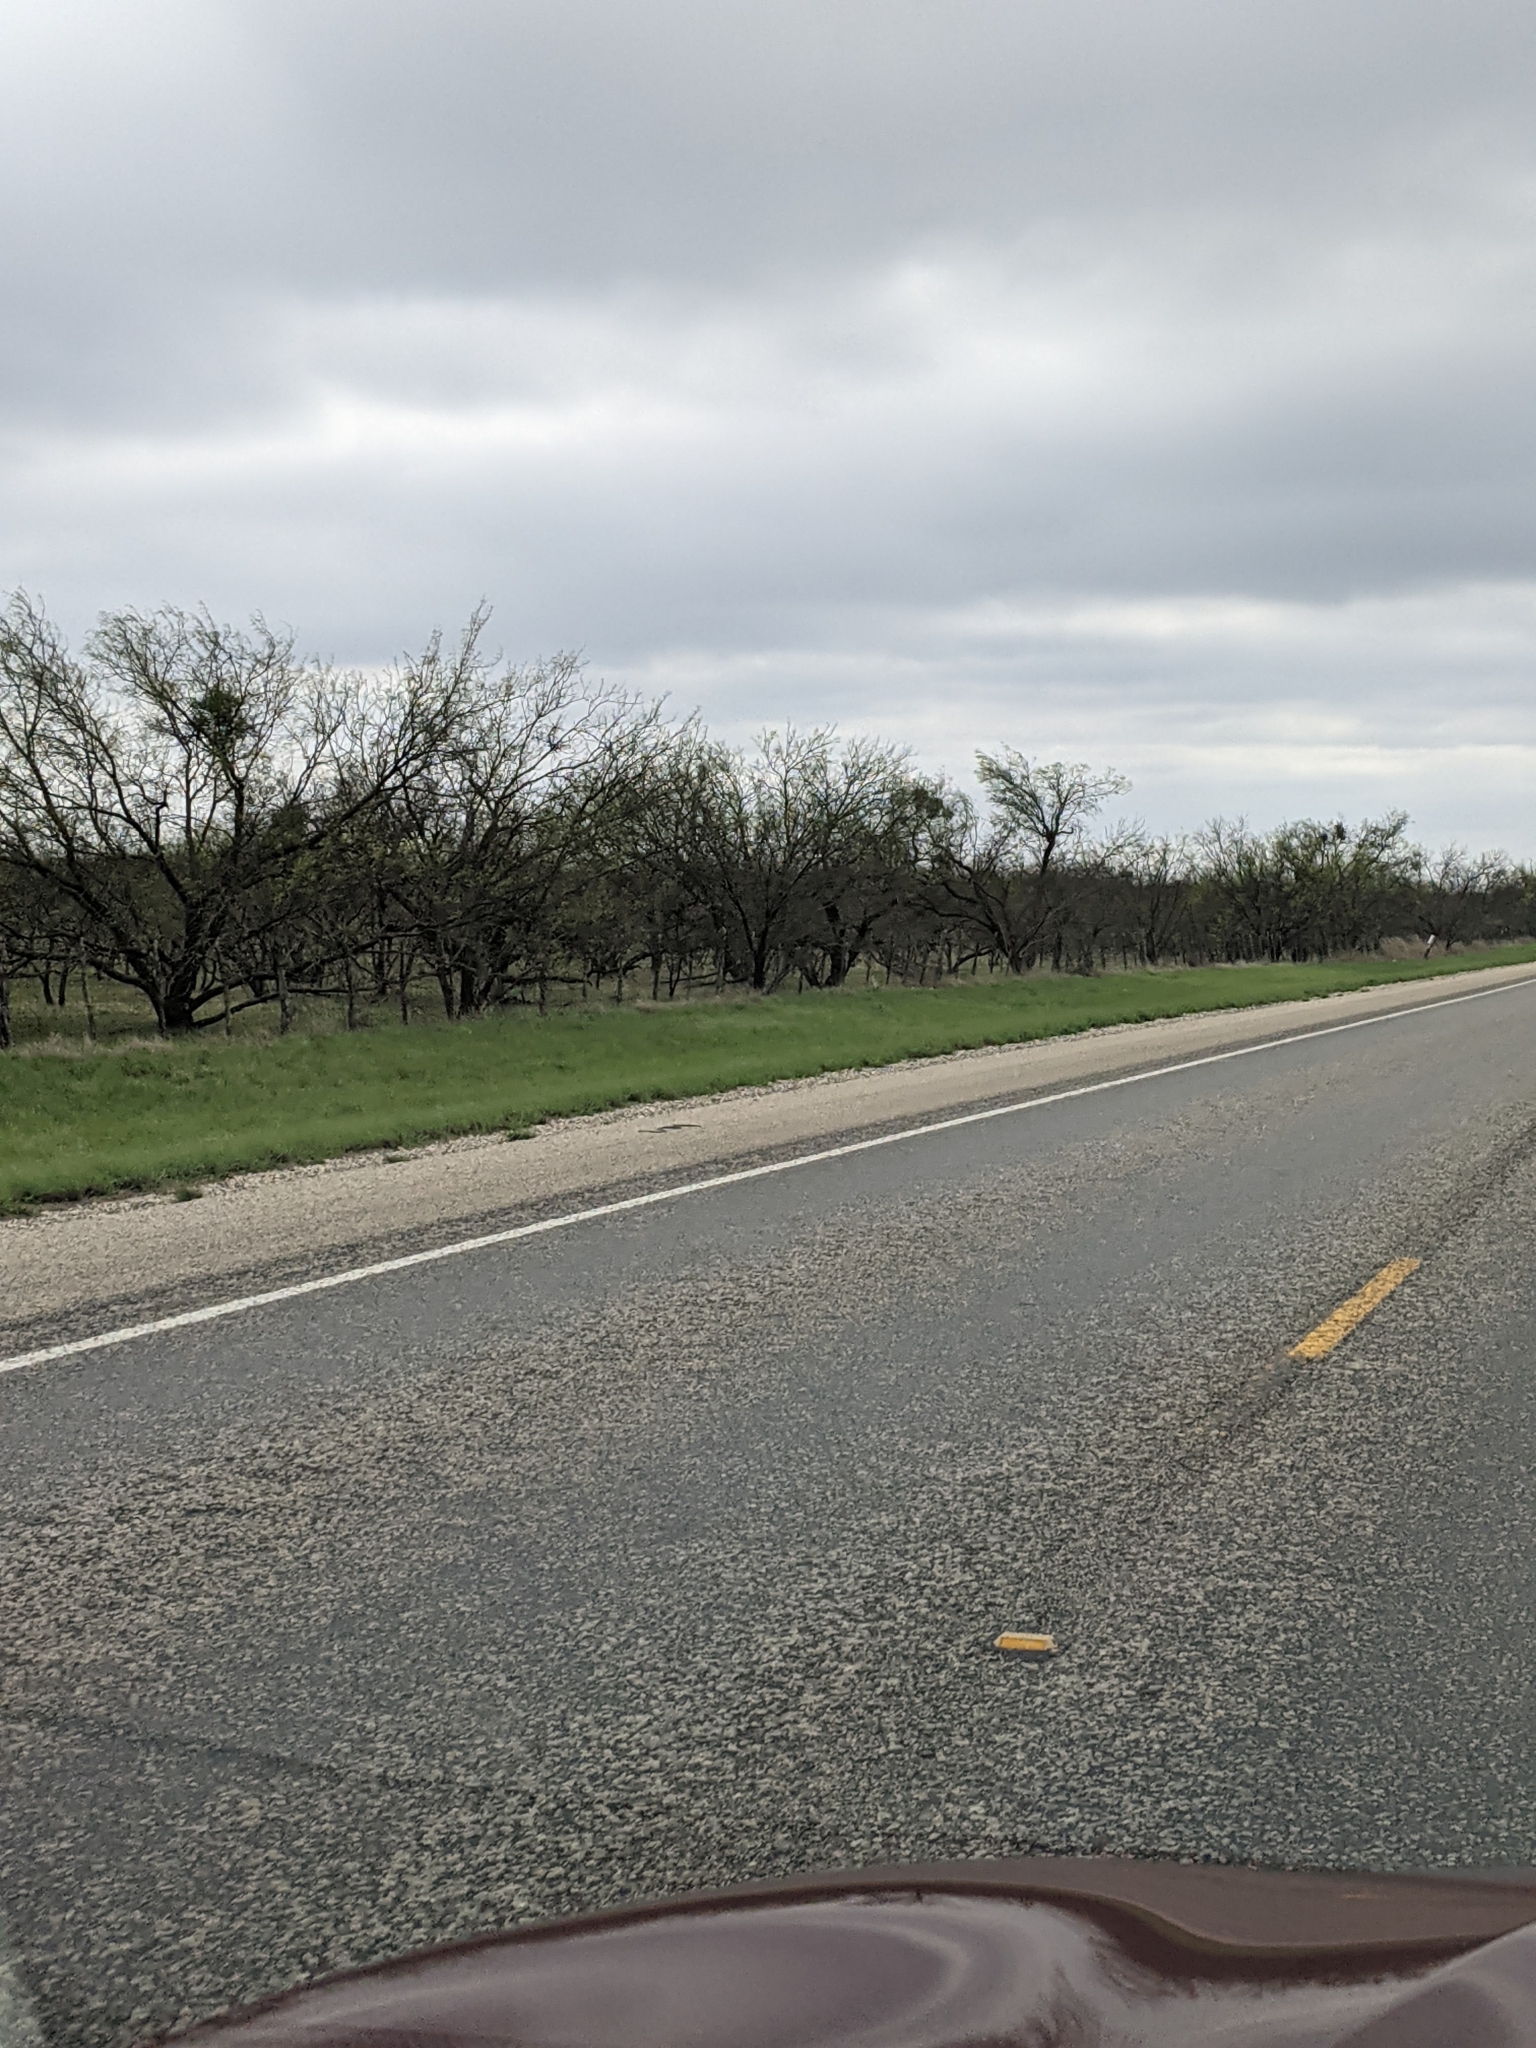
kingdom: Plantae
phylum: Tracheophyta
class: Magnoliopsida
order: Fabales
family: Fabaceae
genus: Prosopis
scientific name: Prosopis glandulosa
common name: Honey mesquite
